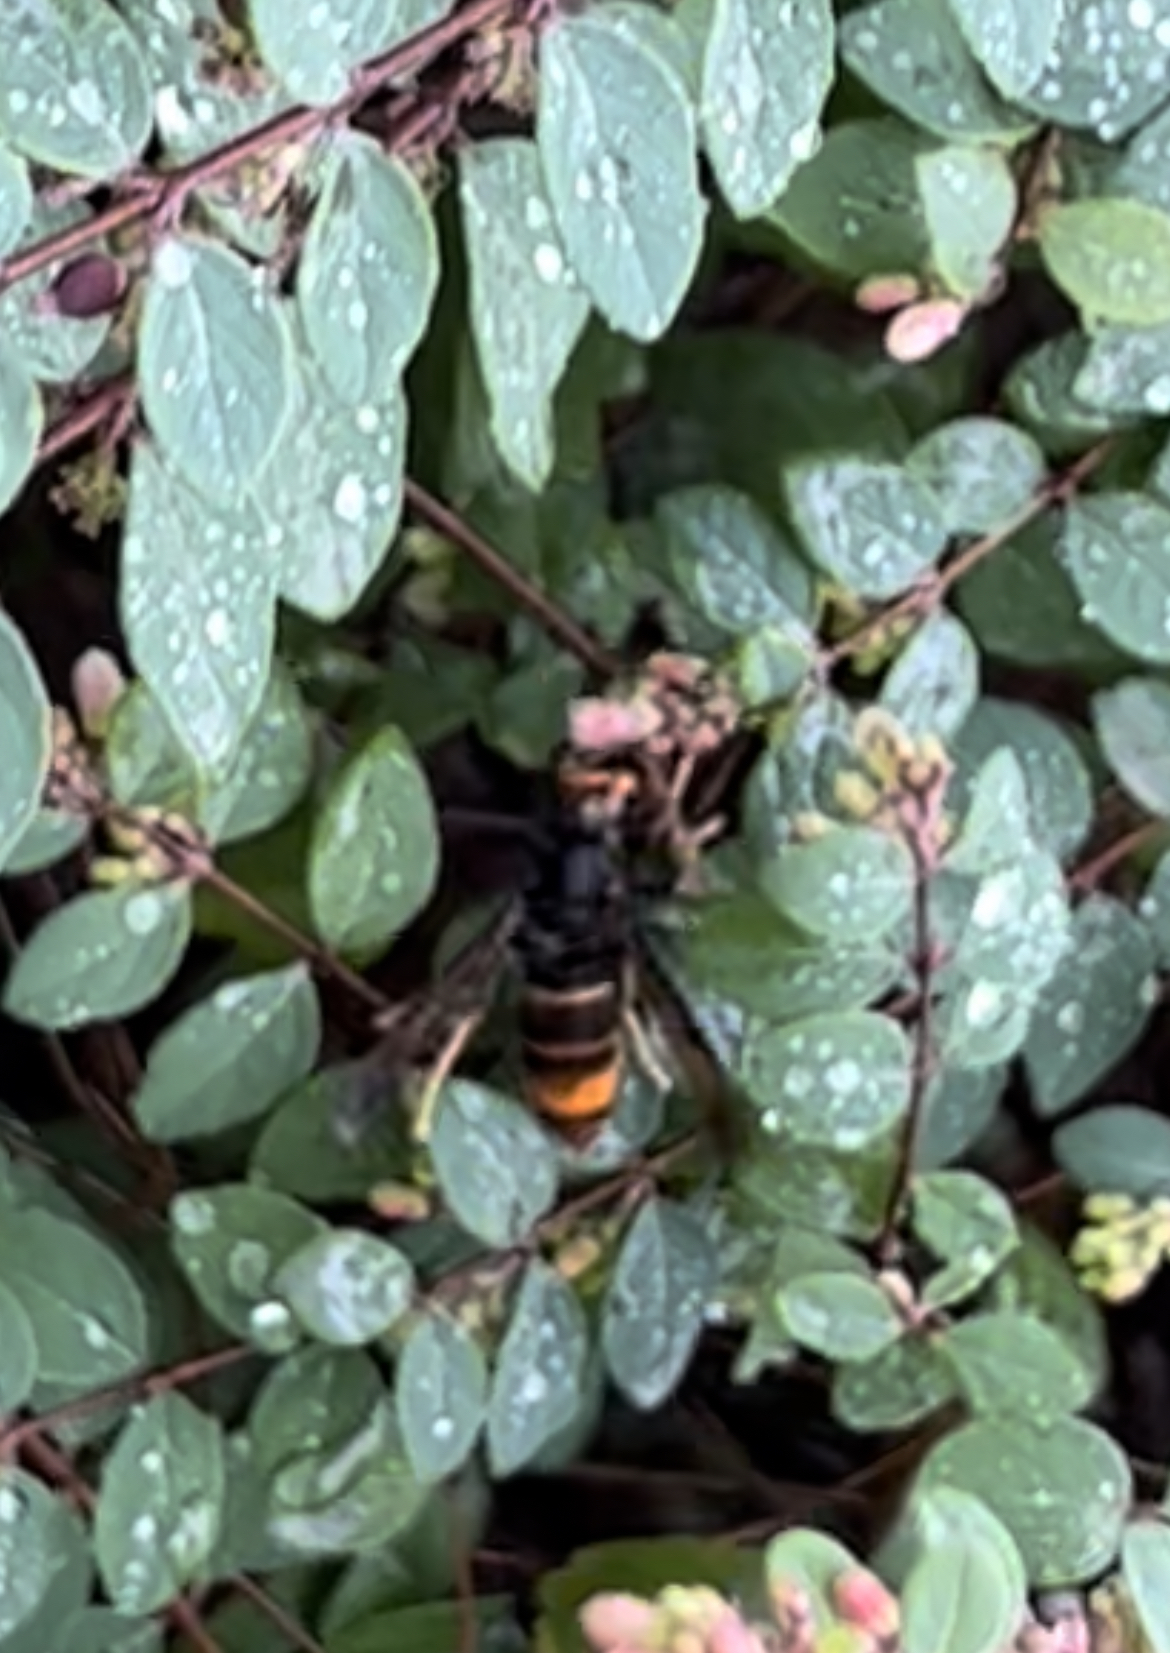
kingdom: Animalia
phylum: Arthropoda
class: Insecta
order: Hymenoptera
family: Vespidae
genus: Vespa
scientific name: Vespa velutina
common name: Asian hornet
